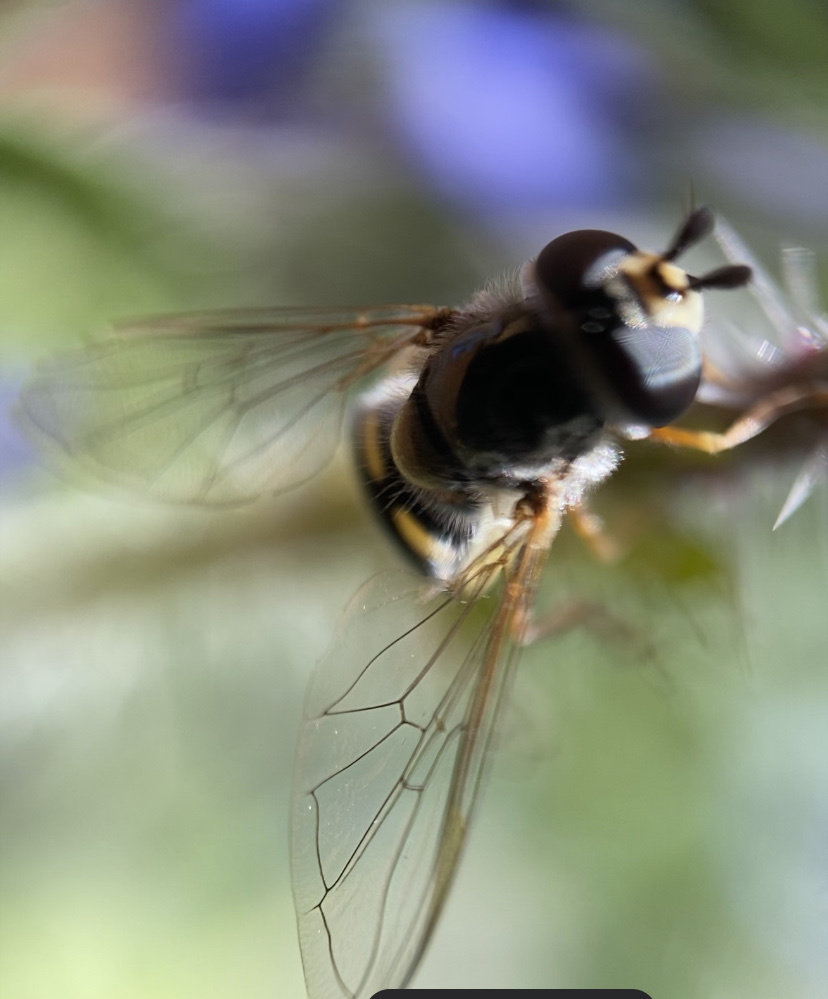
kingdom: Animalia
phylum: Arthropoda
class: Insecta
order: Diptera
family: Syrphidae
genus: Eupeodes
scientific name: Eupeodes volucris
